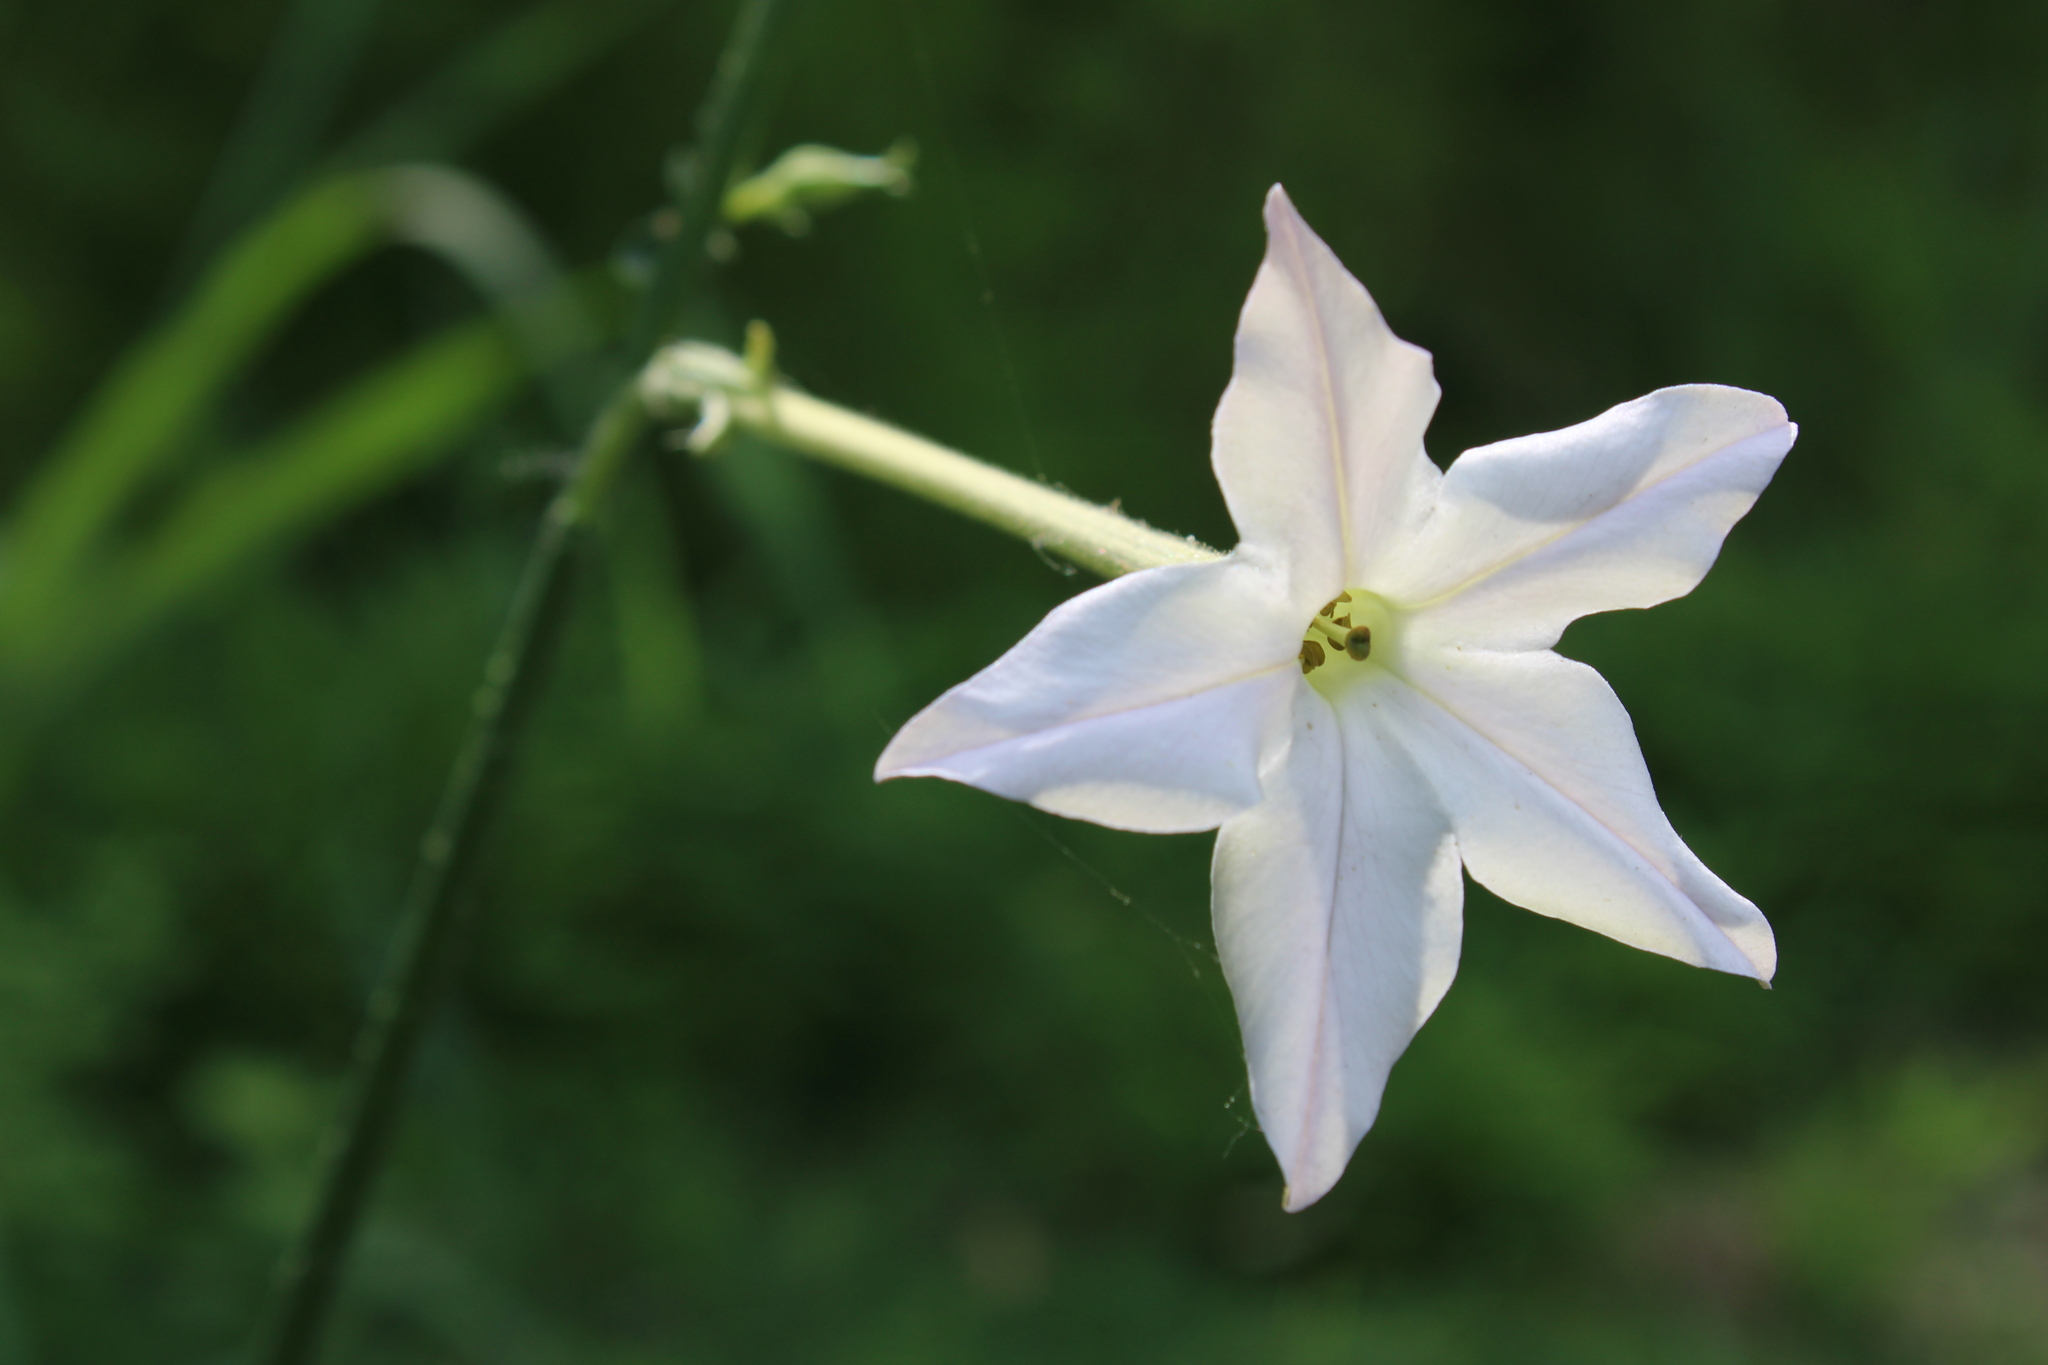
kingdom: Plantae
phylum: Tracheophyta
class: Magnoliopsida
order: Solanales
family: Solanaceae
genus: Nicotiana
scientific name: Nicotiana longiflora
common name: Long-flowered tobacco
